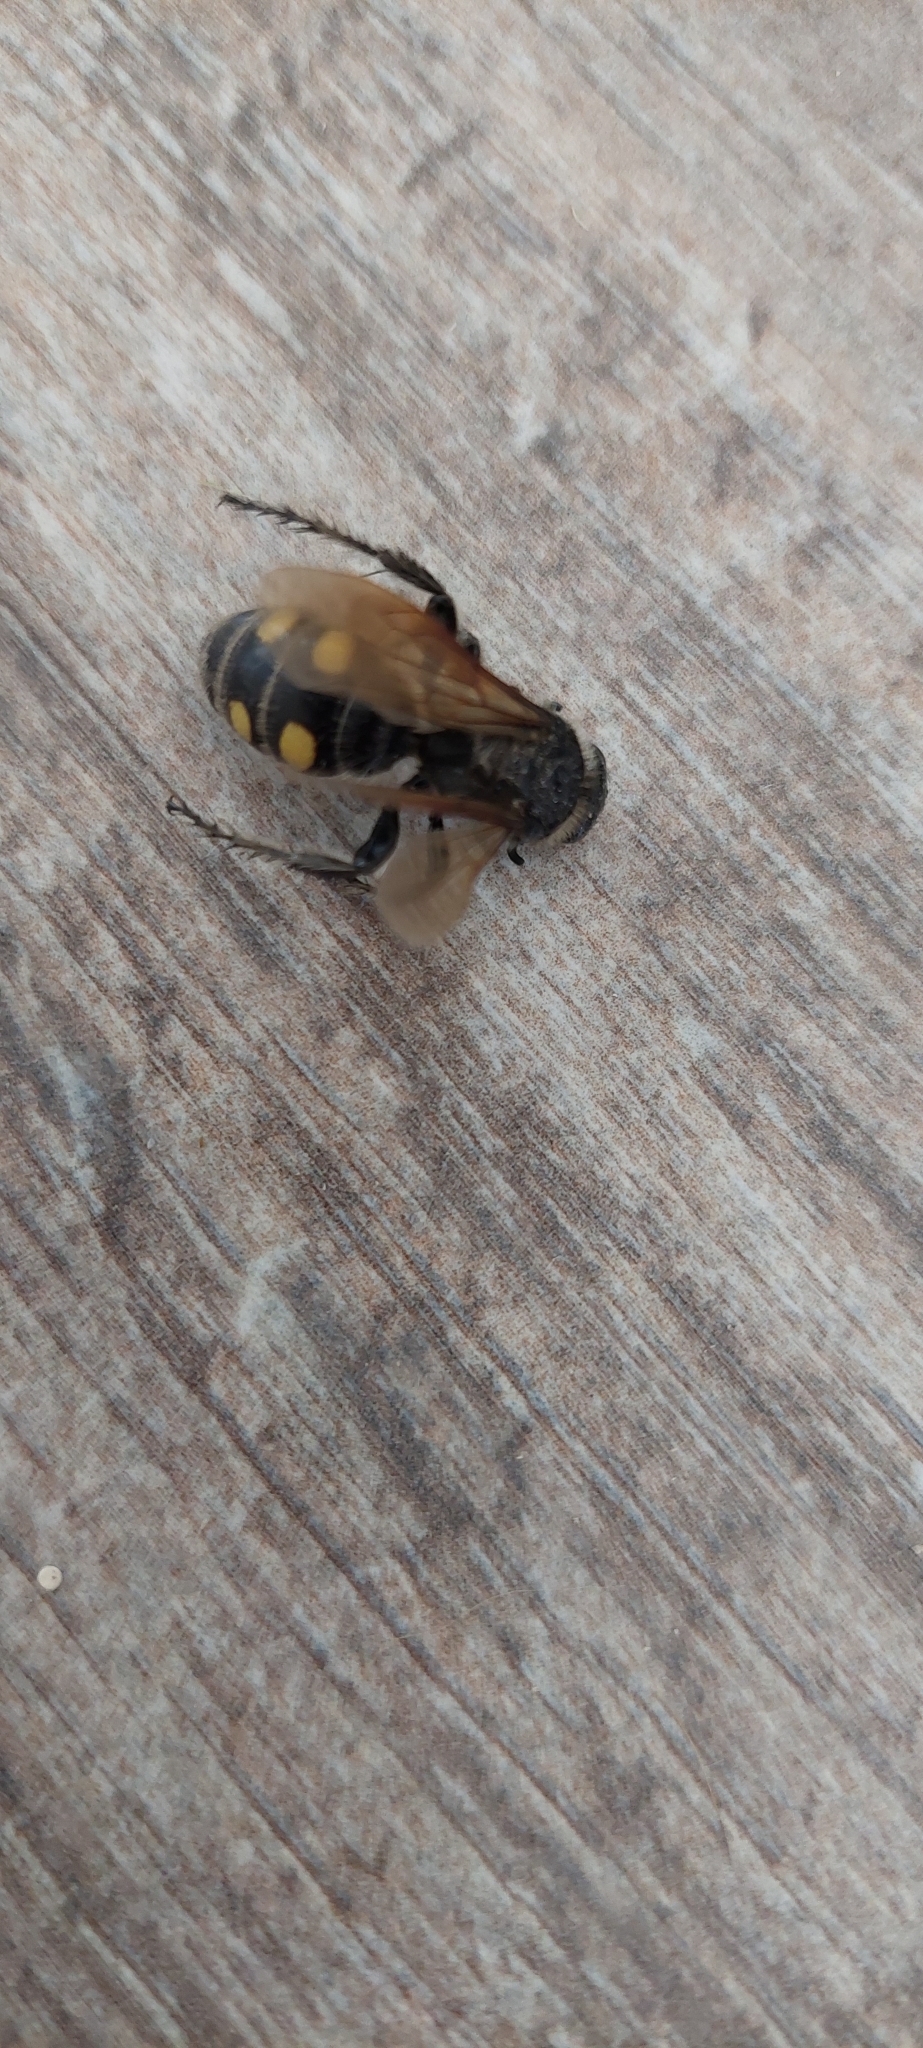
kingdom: Animalia
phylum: Arthropoda
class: Insecta
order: Hymenoptera
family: Scoliidae
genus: Pygodasis
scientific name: Pygodasis
